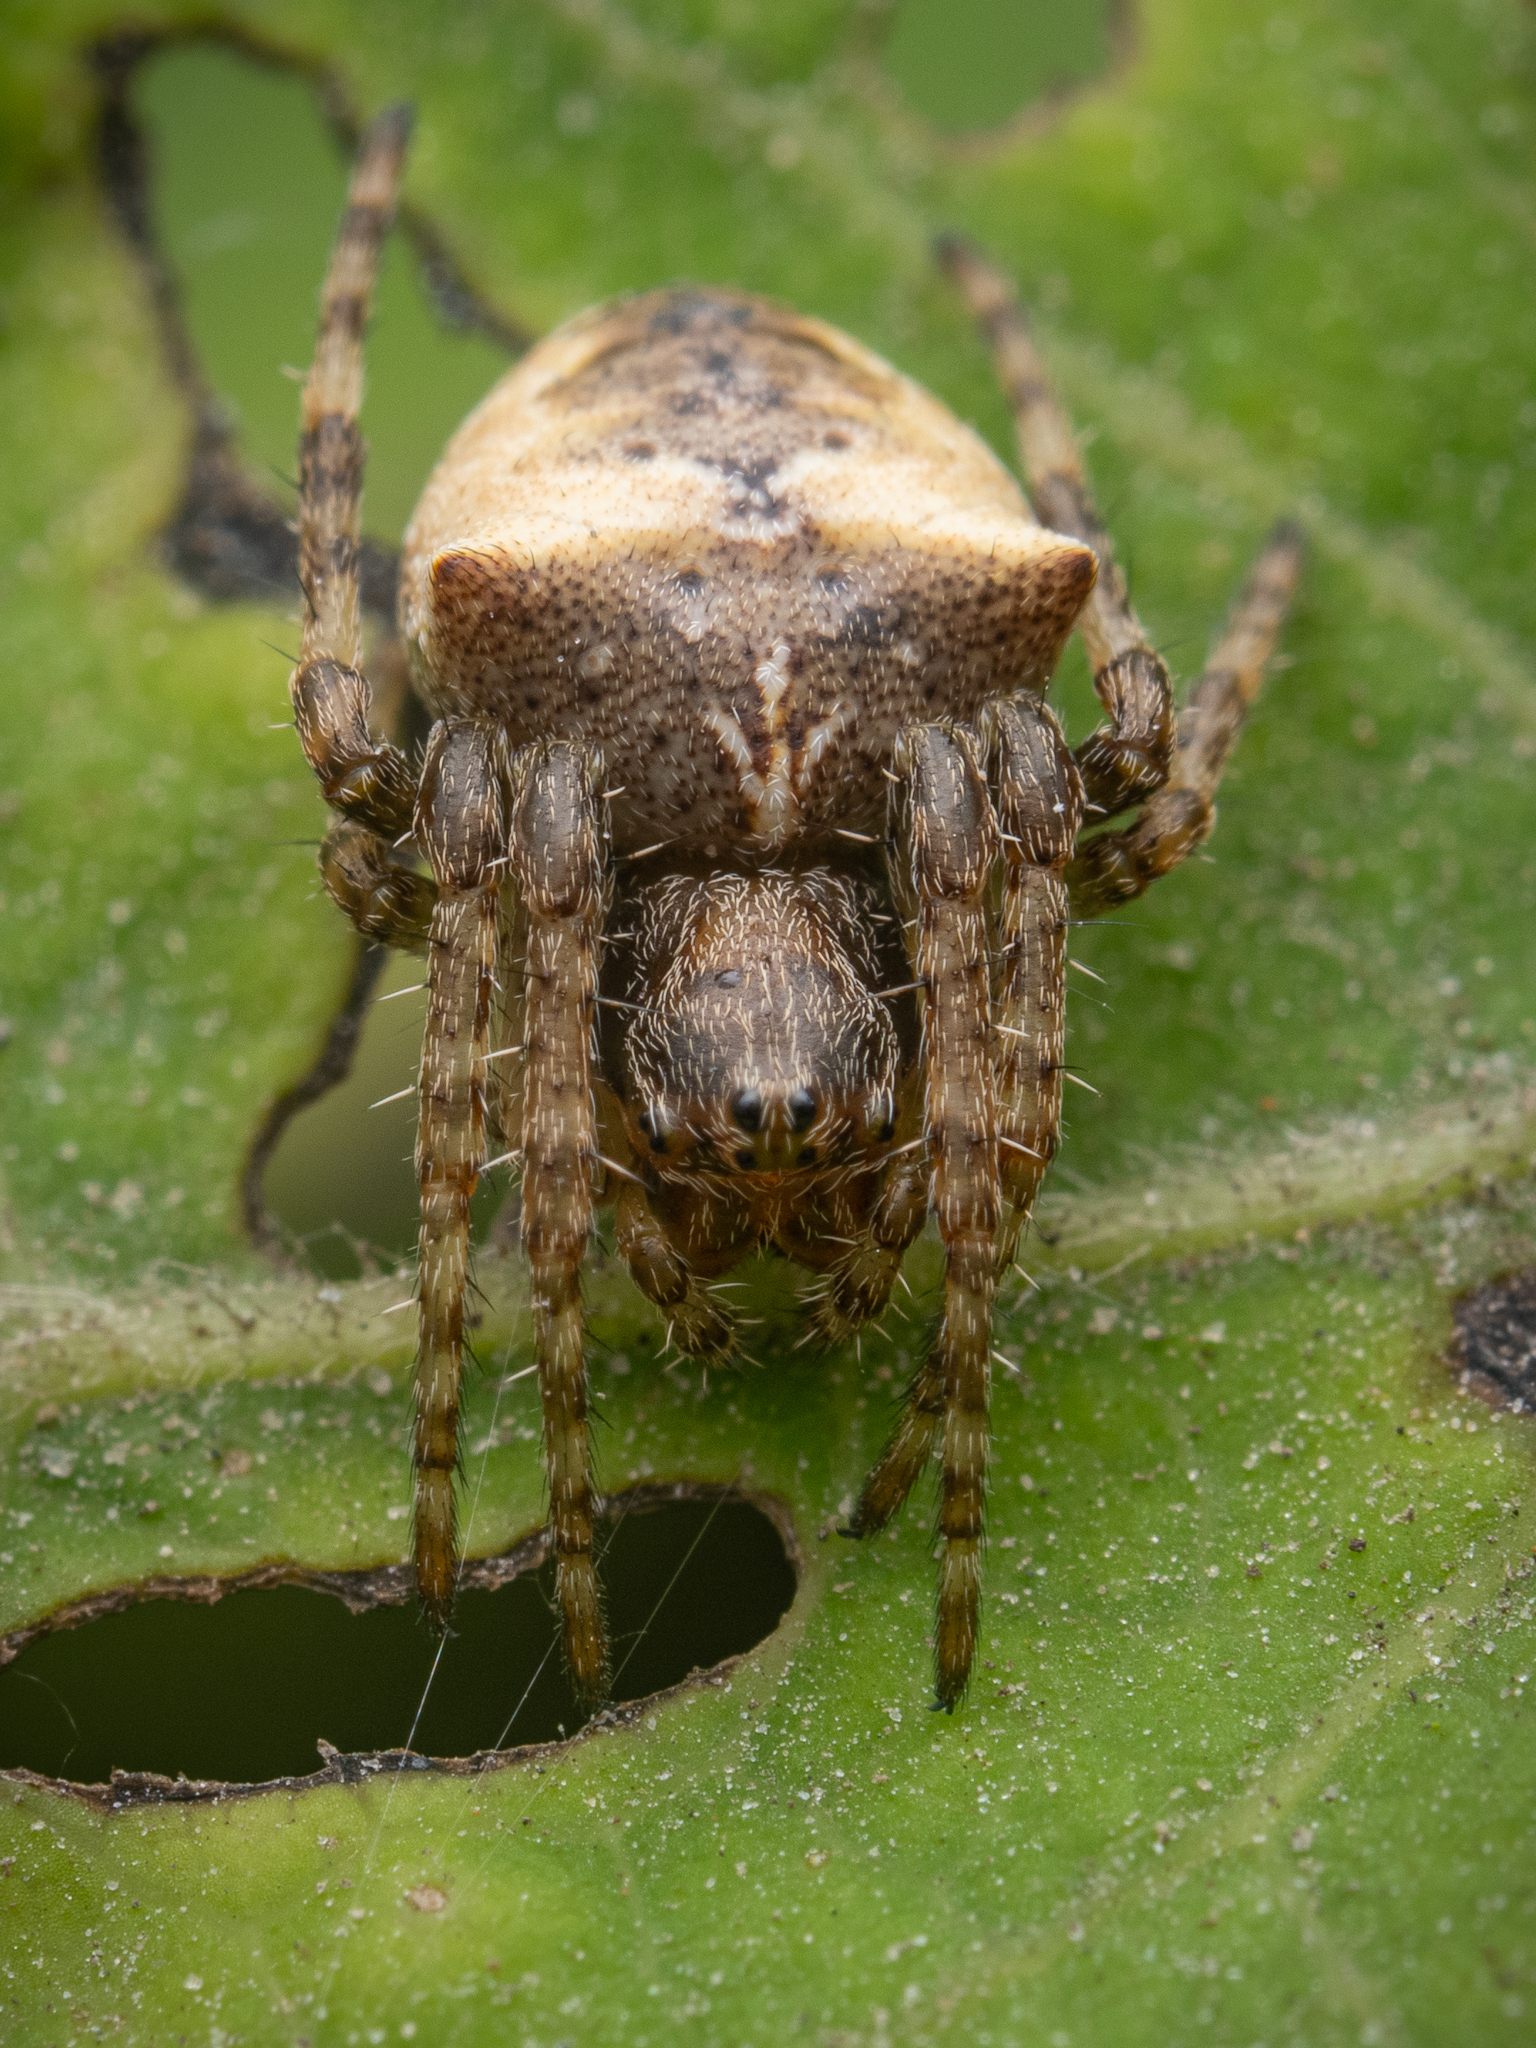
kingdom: Animalia
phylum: Arthropoda
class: Arachnida
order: Araneae
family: Araneidae
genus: Gibbaranea
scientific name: Gibbaranea bituberculata
